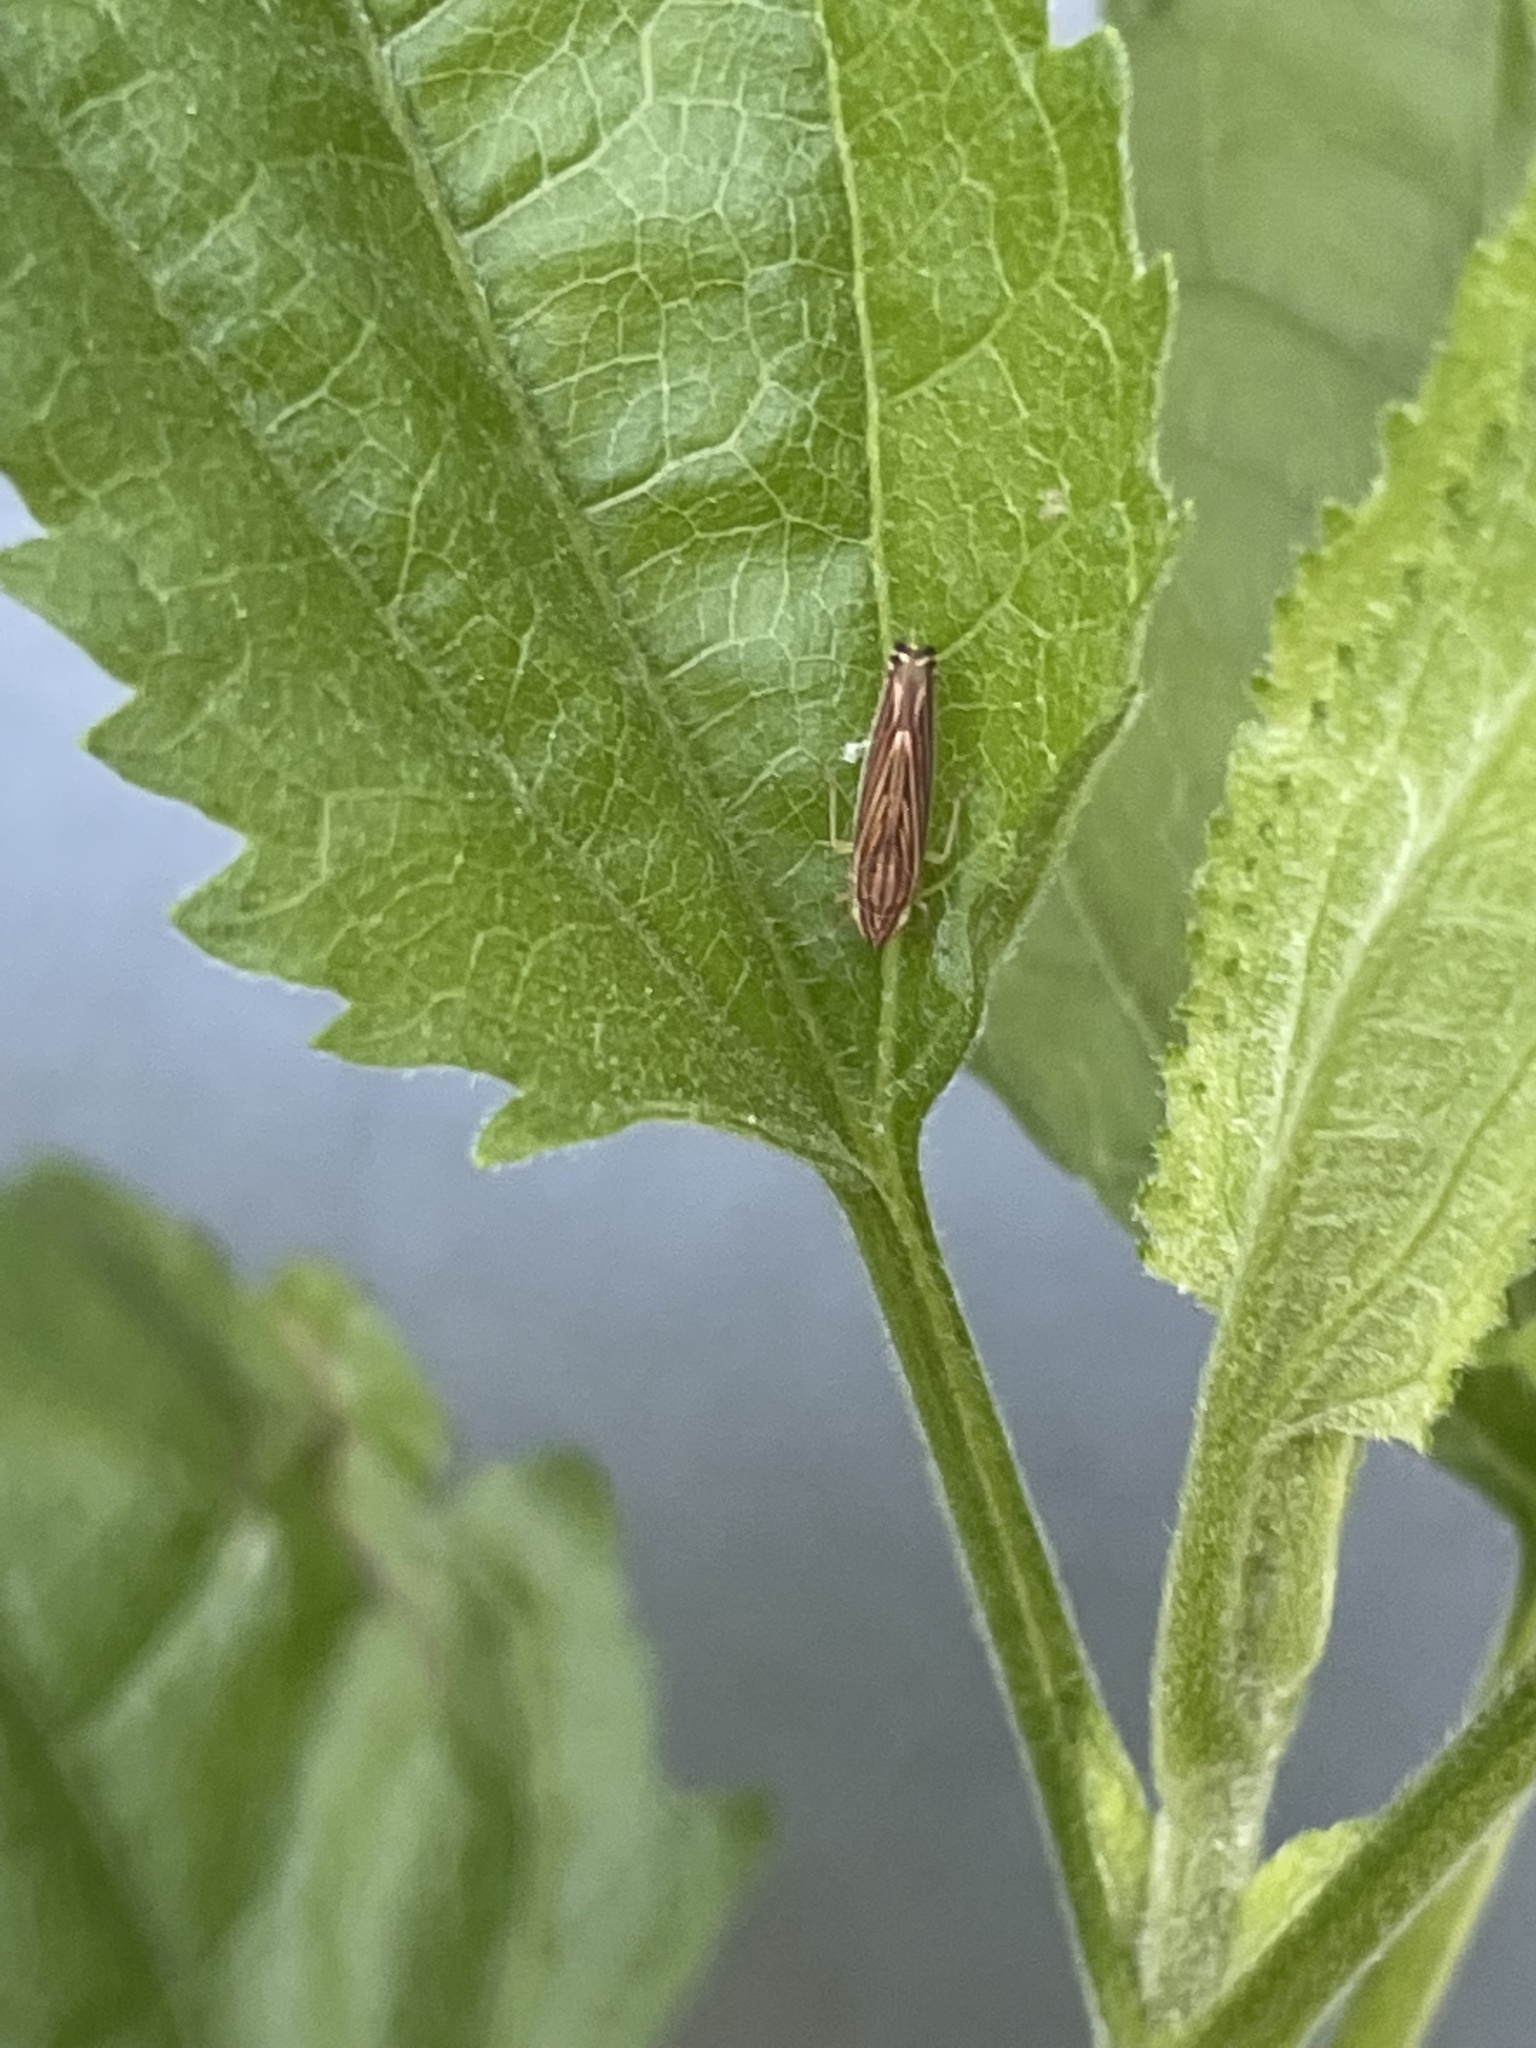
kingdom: Animalia
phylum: Arthropoda
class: Insecta
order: Hemiptera
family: Cicadellidae
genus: Sibovia
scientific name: Sibovia occatoria
